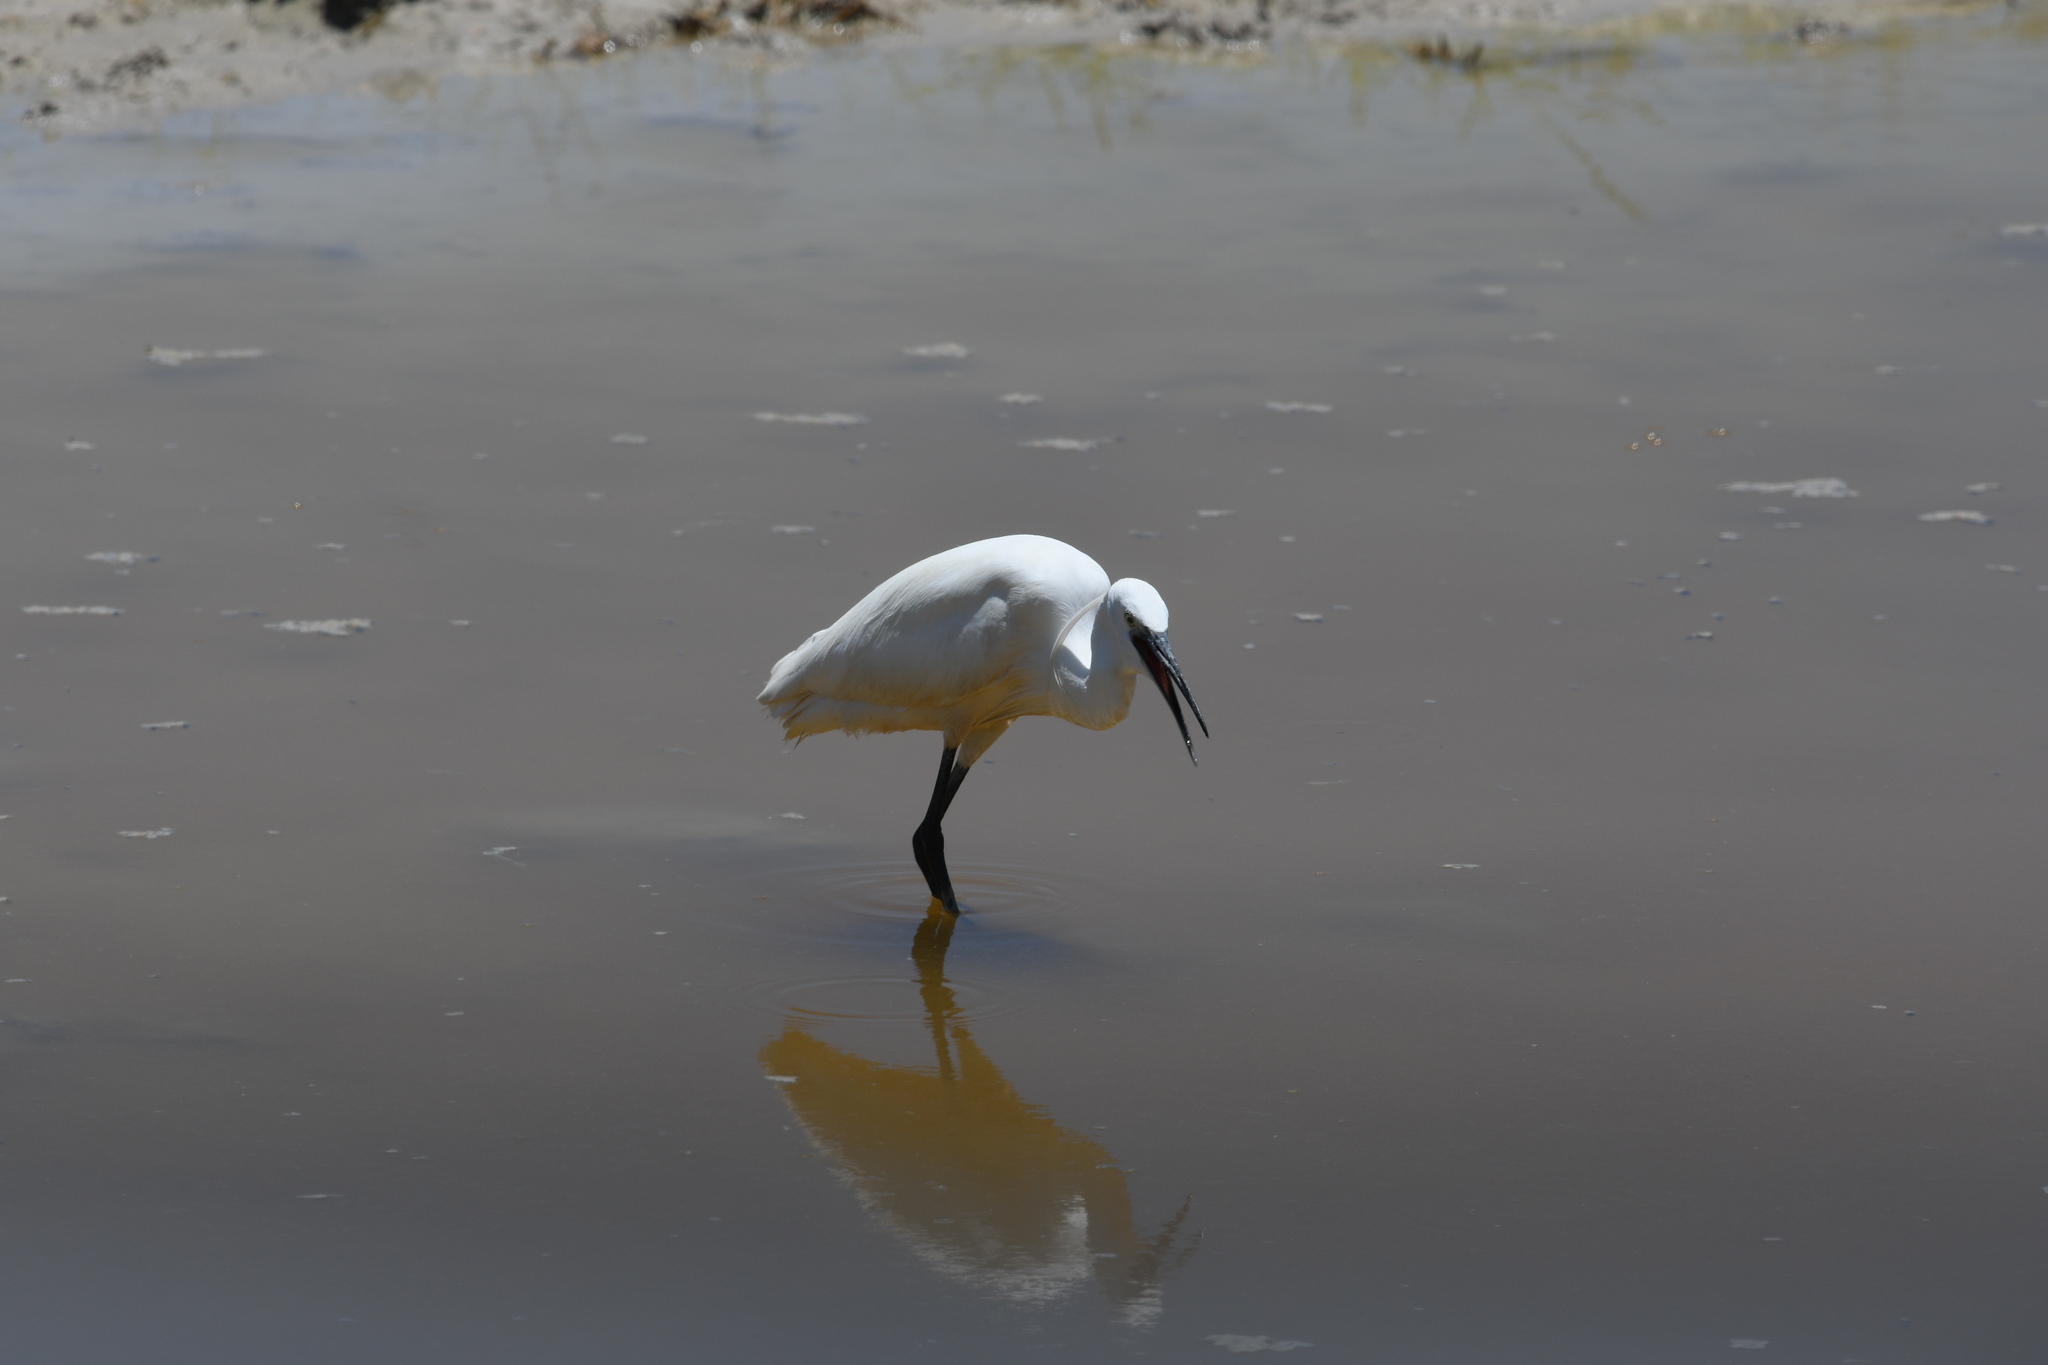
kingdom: Animalia
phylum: Chordata
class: Aves
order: Pelecaniformes
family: Ardeidae
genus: Egretta
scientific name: Egretta garzetta
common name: Little egret
